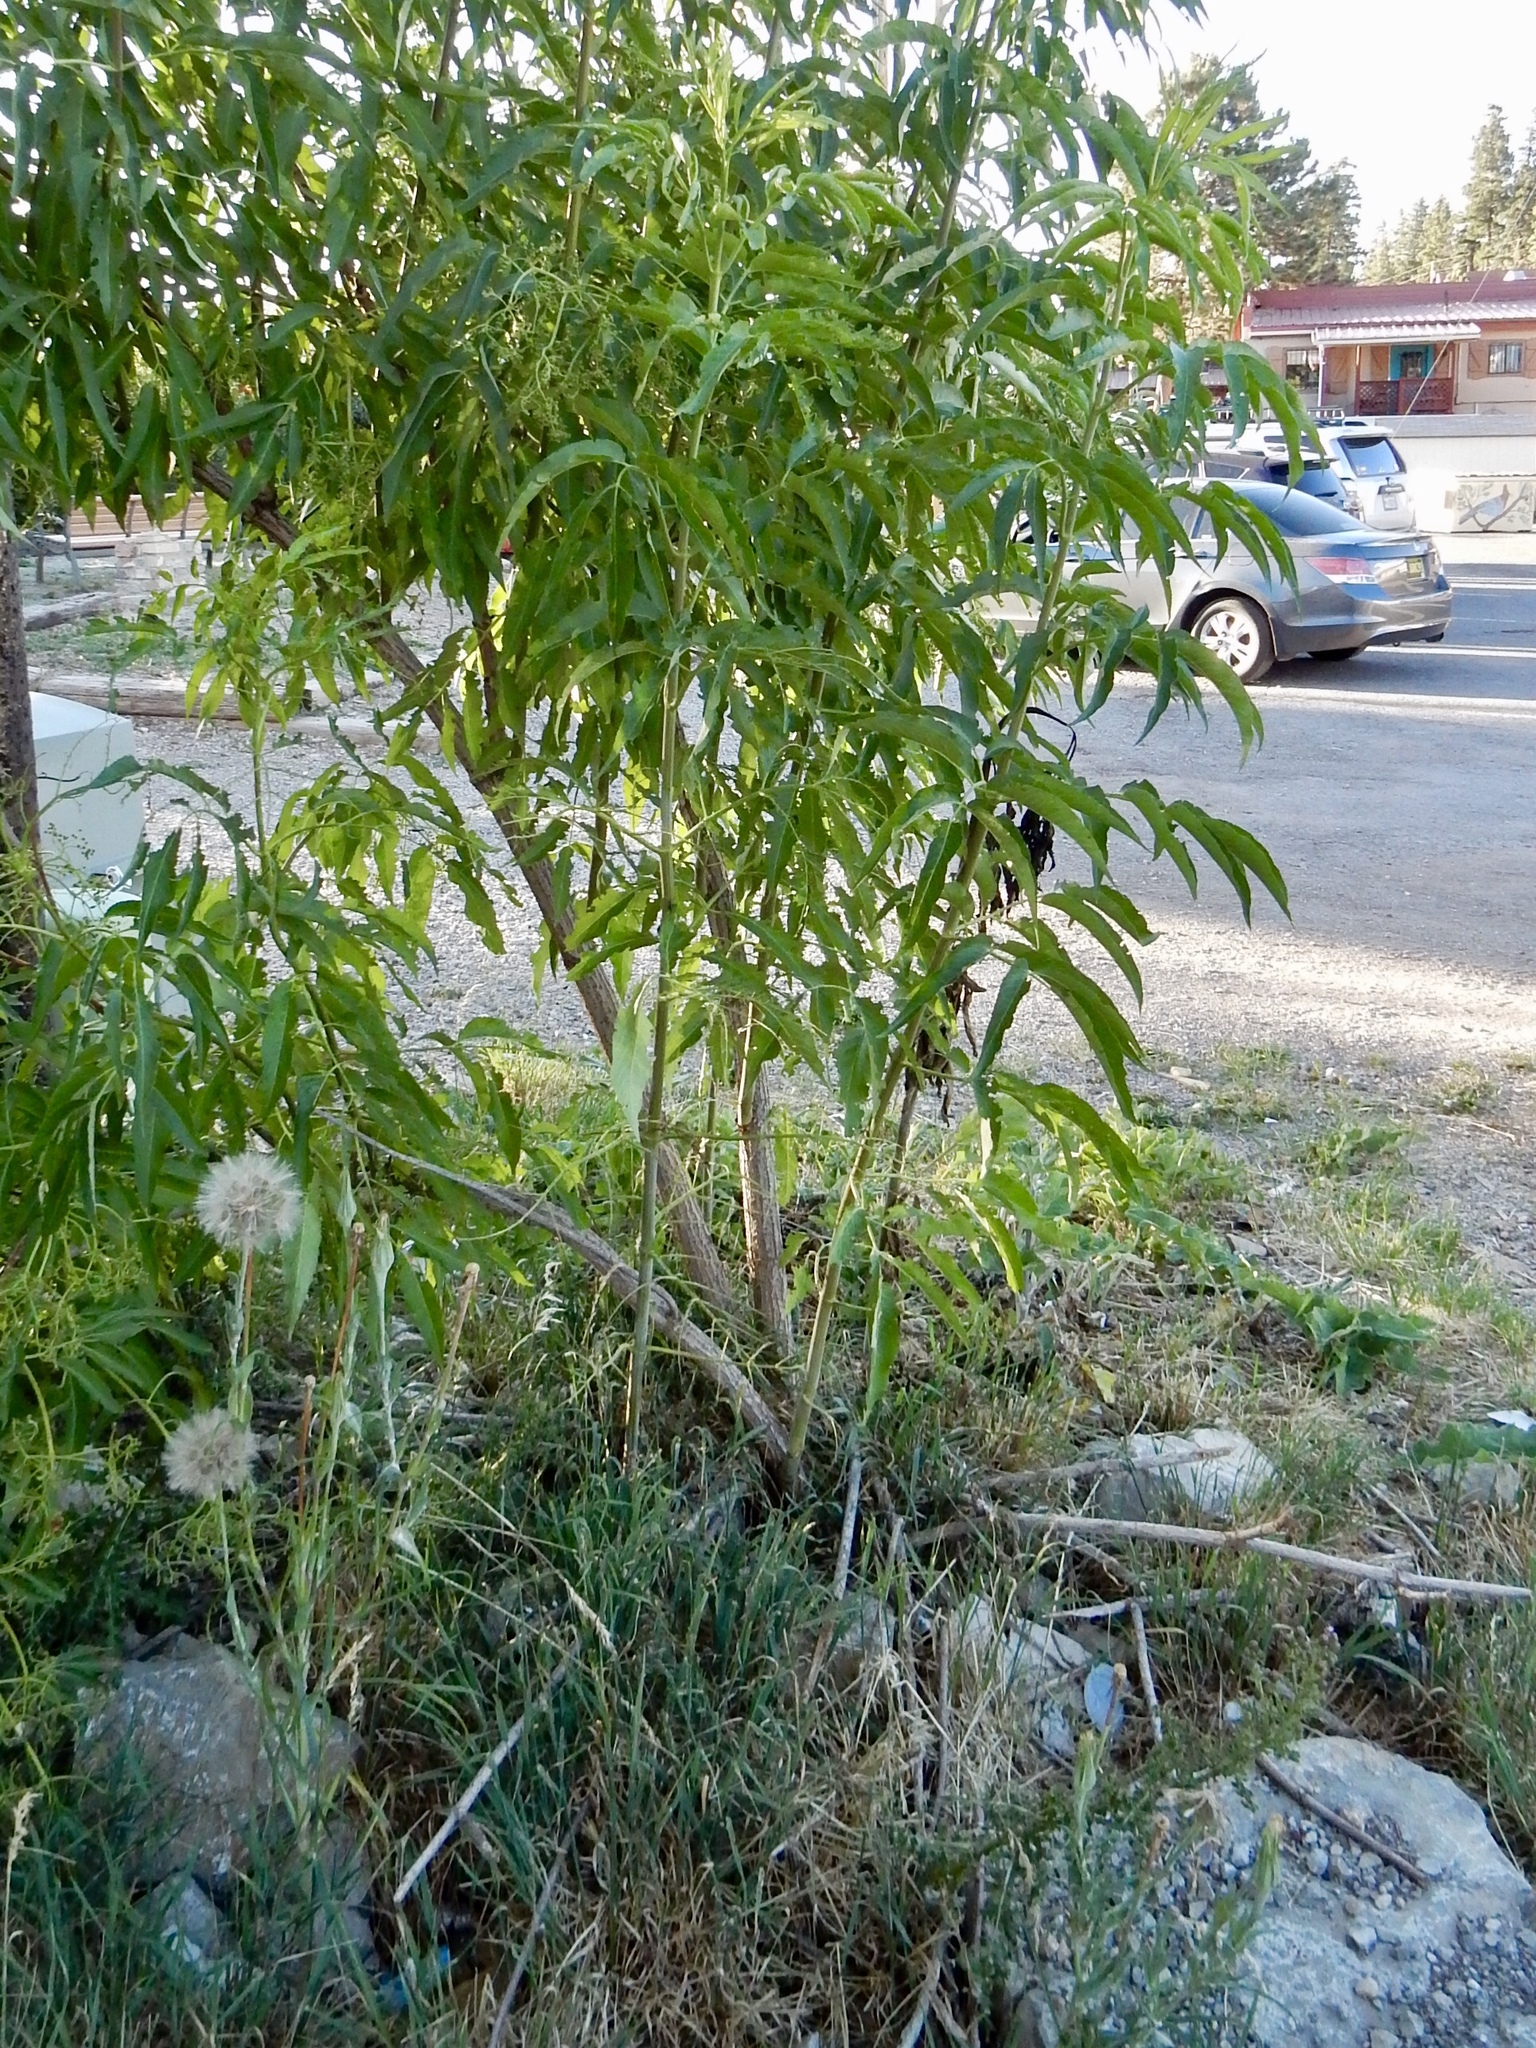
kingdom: Plantae
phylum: Tracheophyta
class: Magnoliopsida
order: Sapindales
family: Simaroubaceae
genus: Ailanthus
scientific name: Ailanthus altissima
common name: Tree-of-heaven
